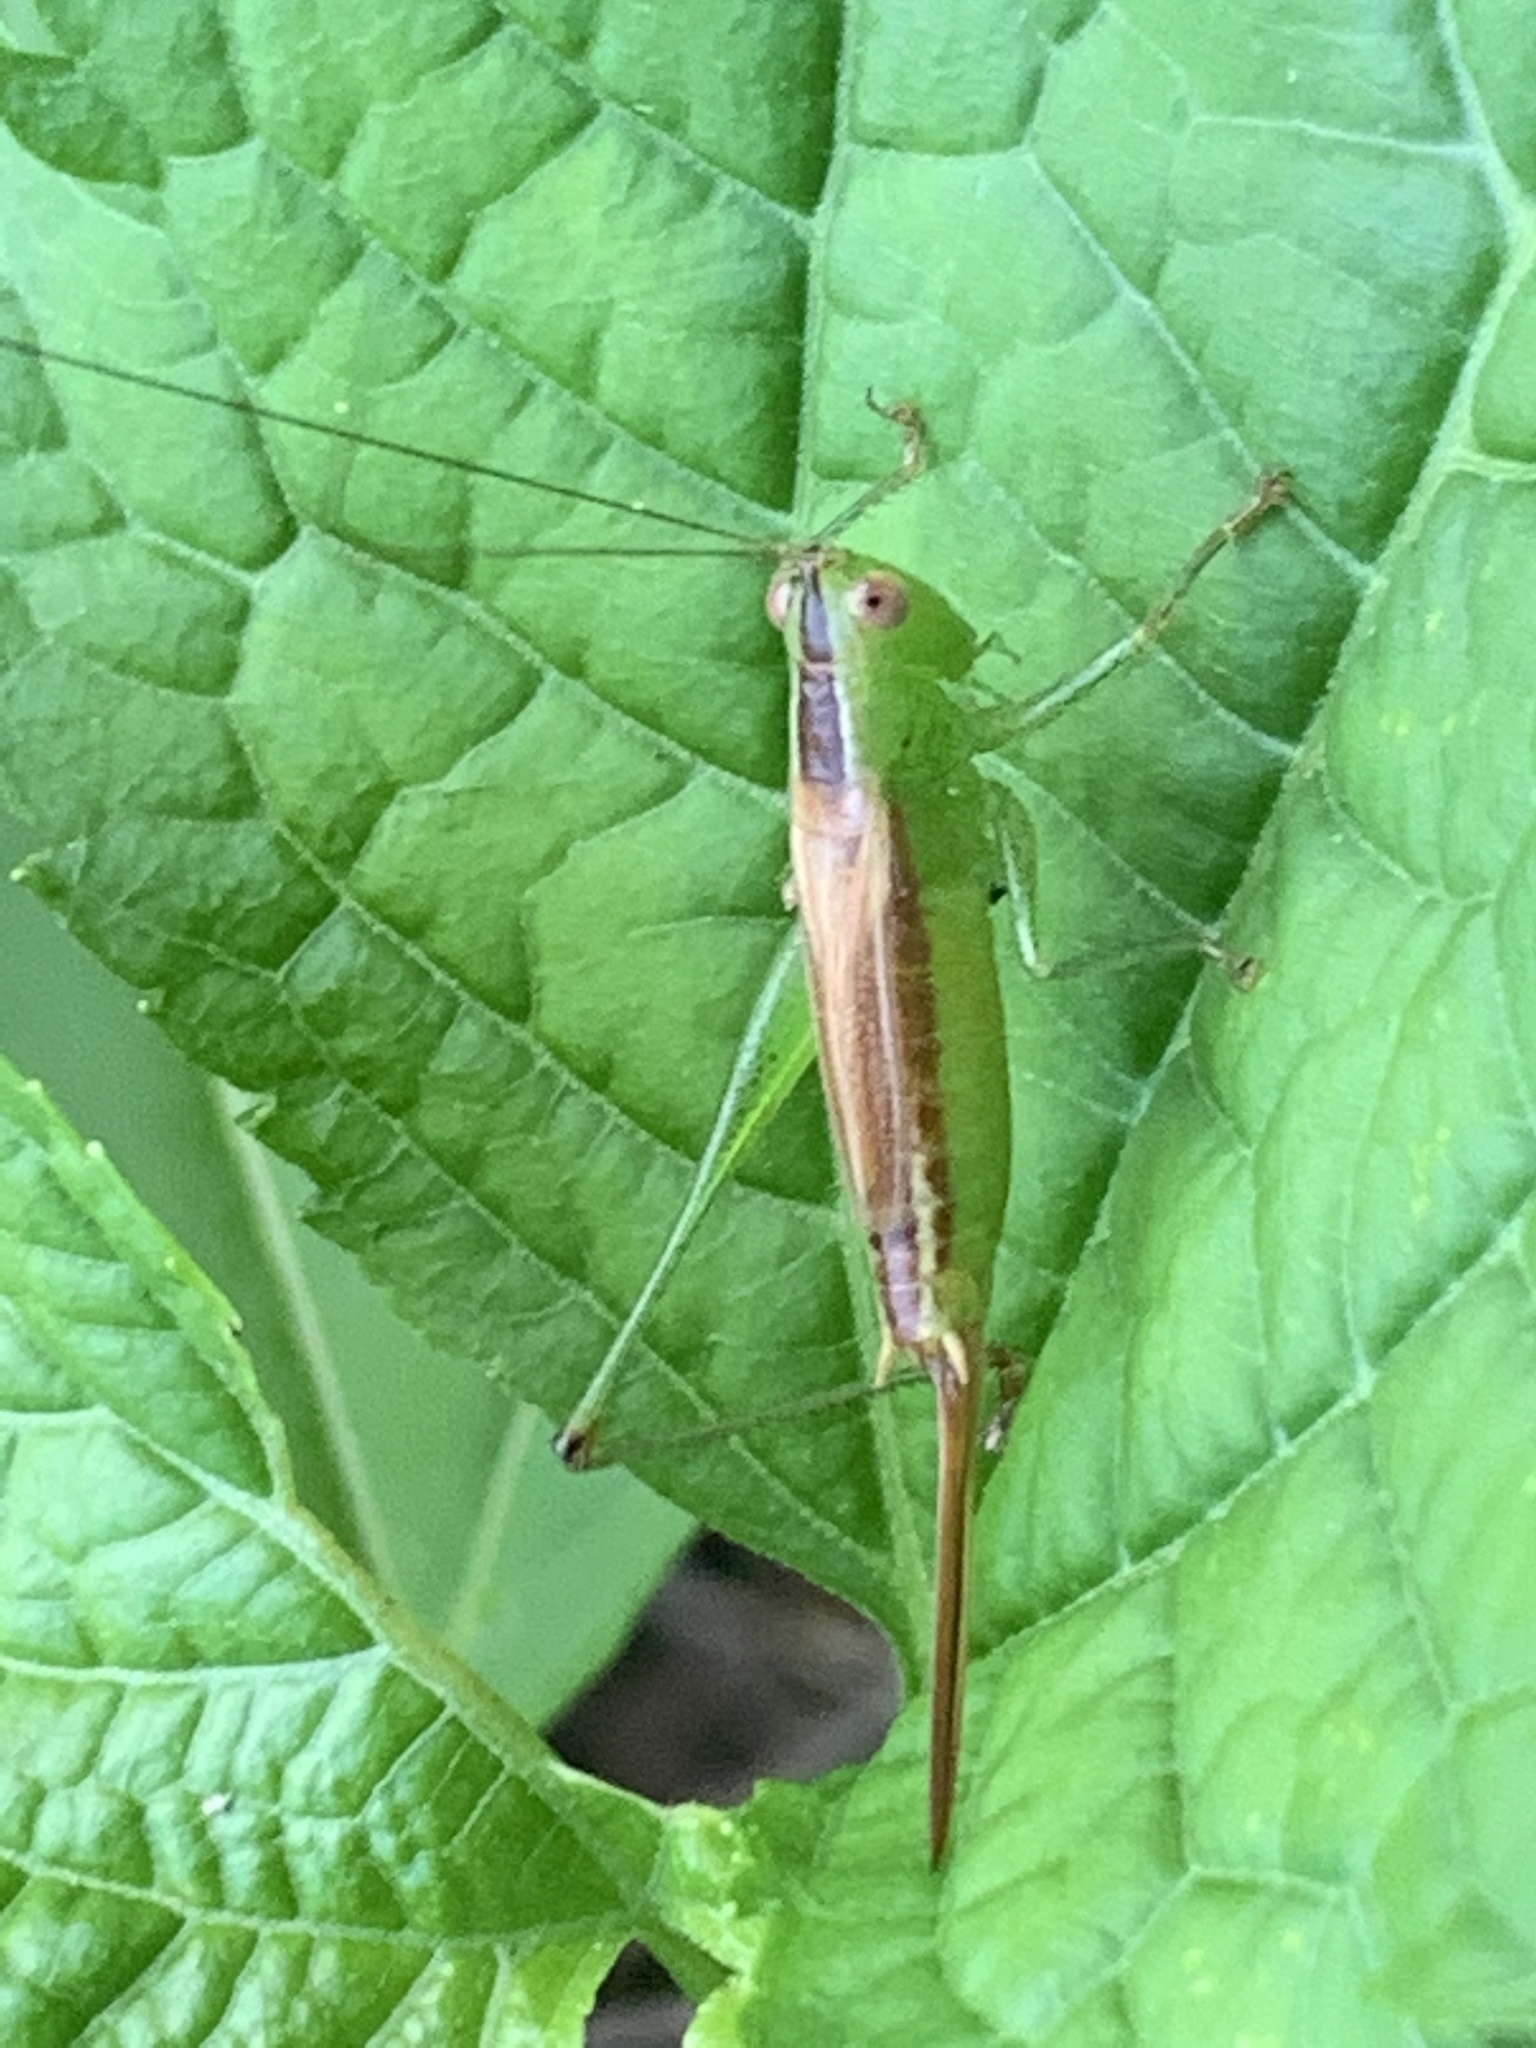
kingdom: Animalia
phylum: Arthropoda
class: Insecta
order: Orthoptera
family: Tettigoniidae
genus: Conocephalus
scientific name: Conocephalus brevipennis
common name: Short-winged meadow katydid
